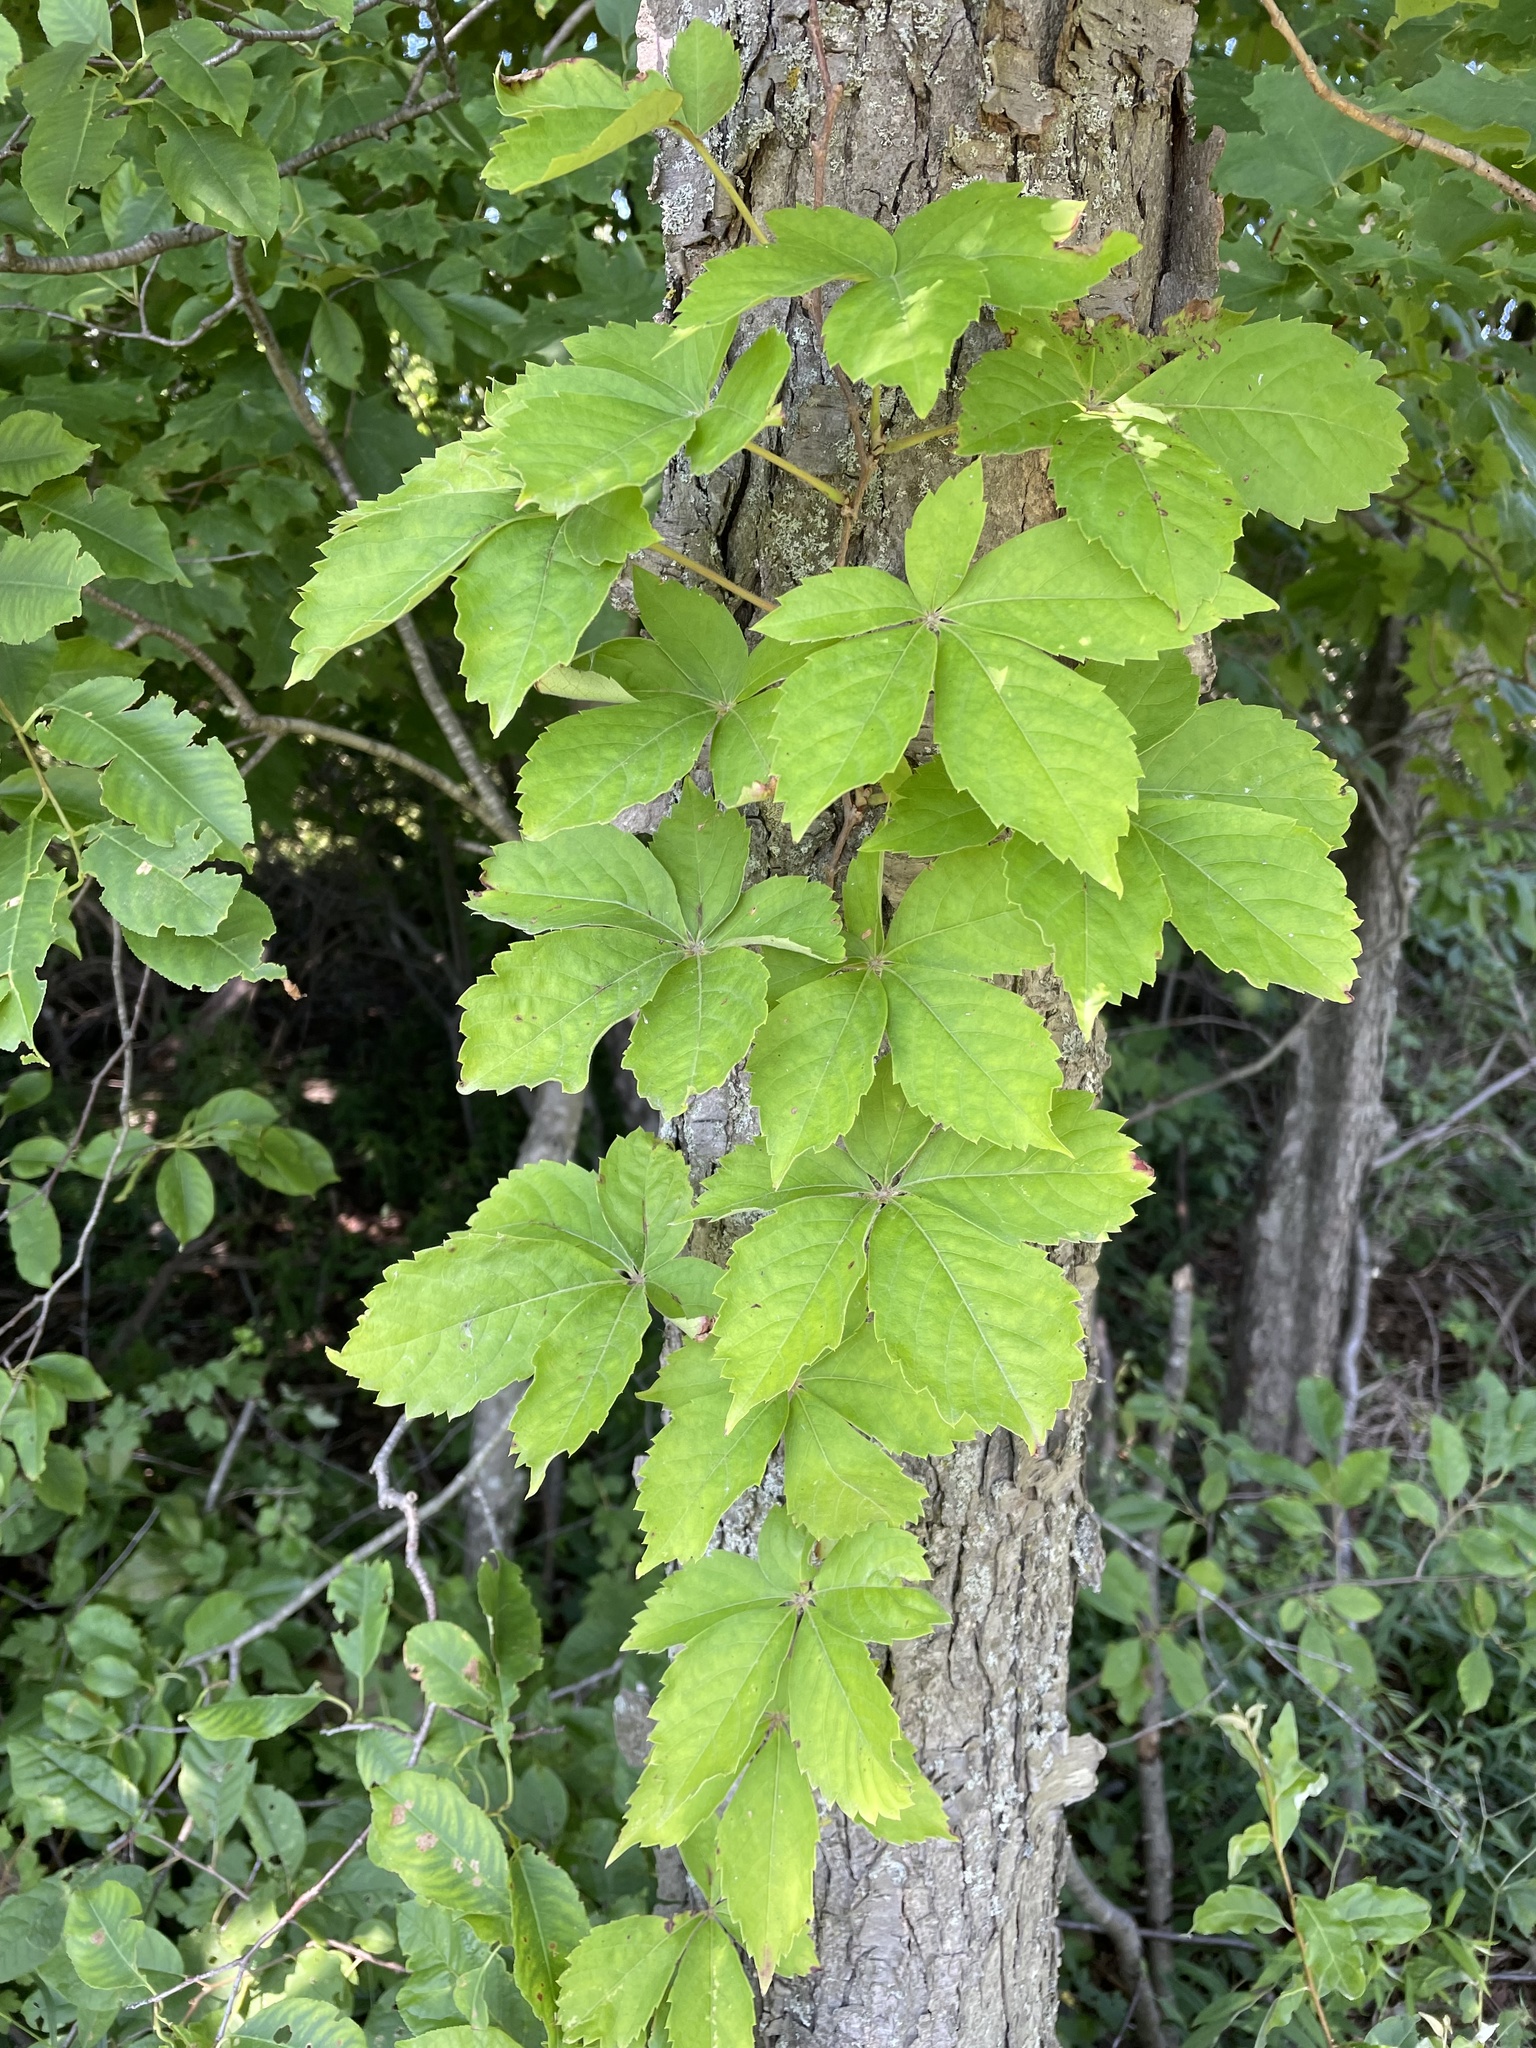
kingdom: Plantae
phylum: Tracheophyta
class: Magnoliopsida
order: Vitales
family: Vitaceae
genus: Parthenocissus
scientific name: Parthenocissus quinquefolia
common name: Virginia-creeper
